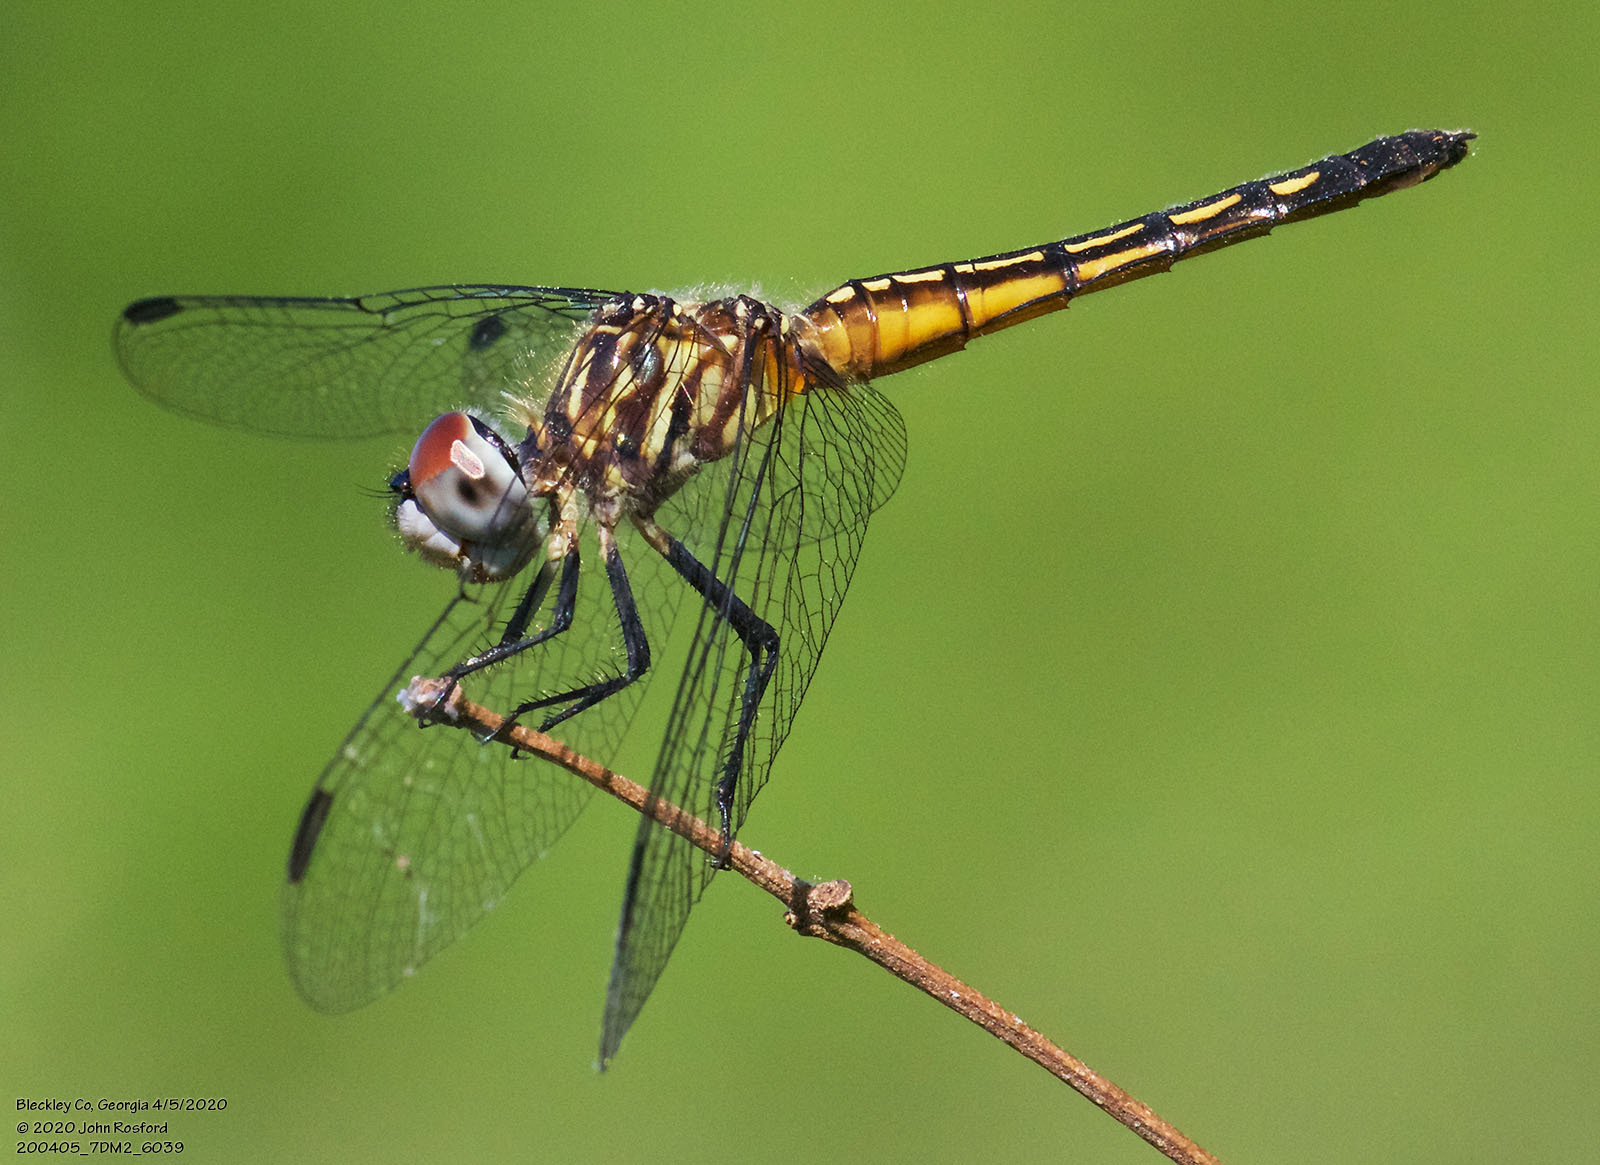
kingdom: Animalia
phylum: Arthropoda
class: Insecta
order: Odonata
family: Libellulidae
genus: Pachydiplax
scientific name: Pachydiplax longipennis
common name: Blue dasher
